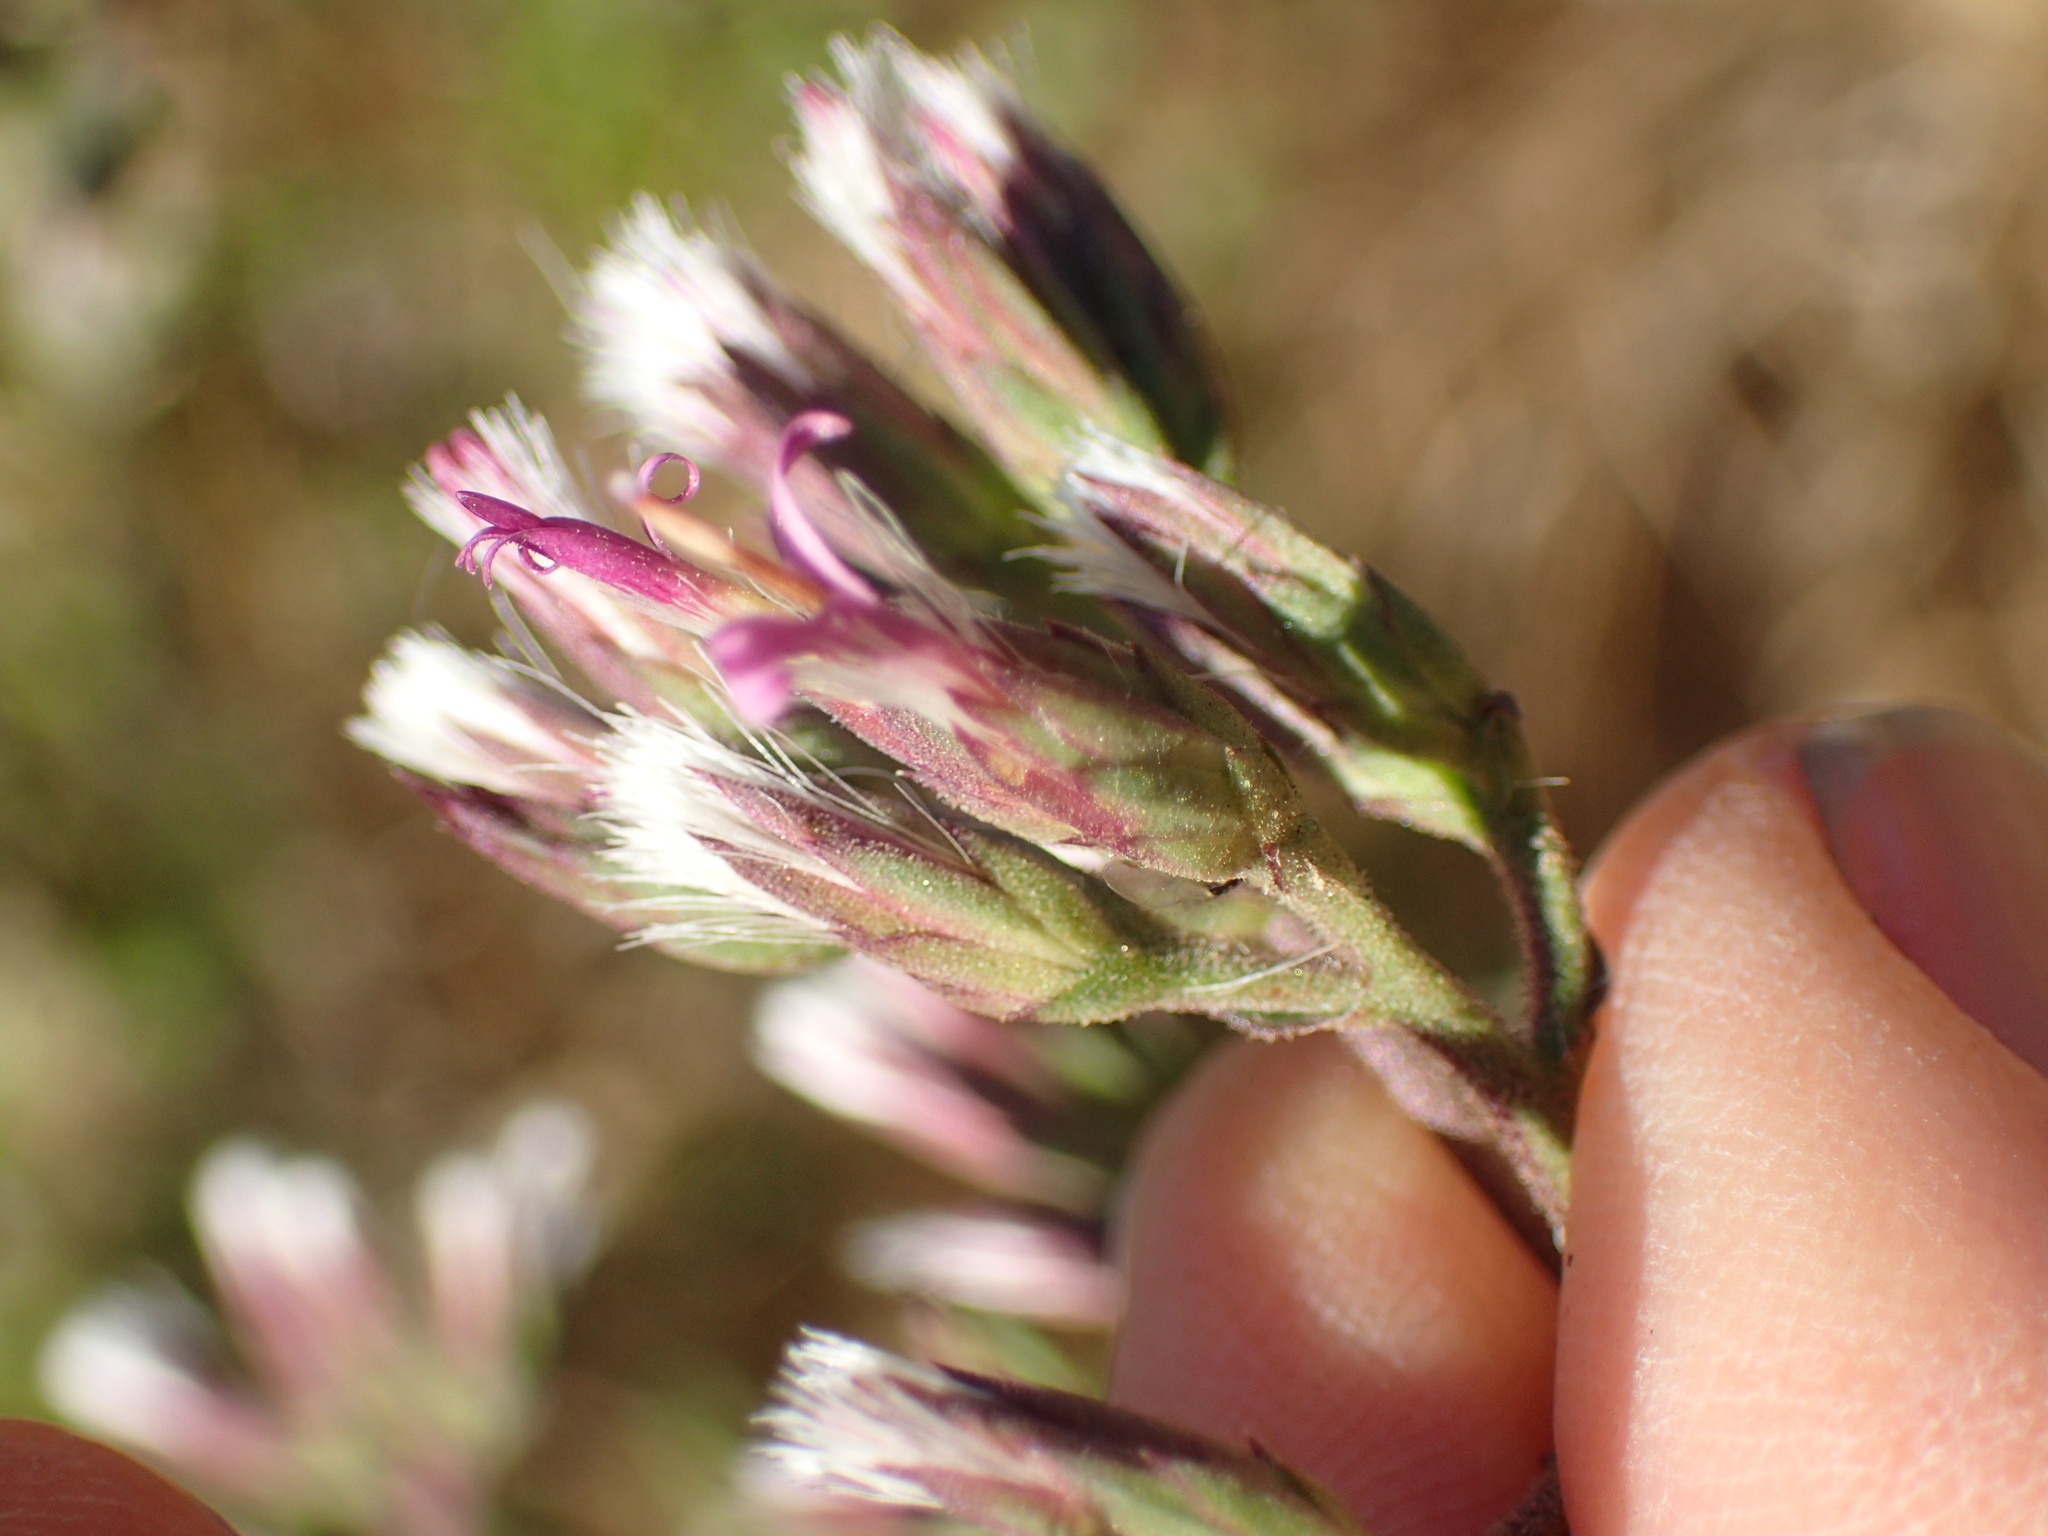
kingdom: Plantae
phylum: Tracheophyta
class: Magnoliopsida
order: Asterales
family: Asteraceae
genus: Acourtia
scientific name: Acourtia microcephala
